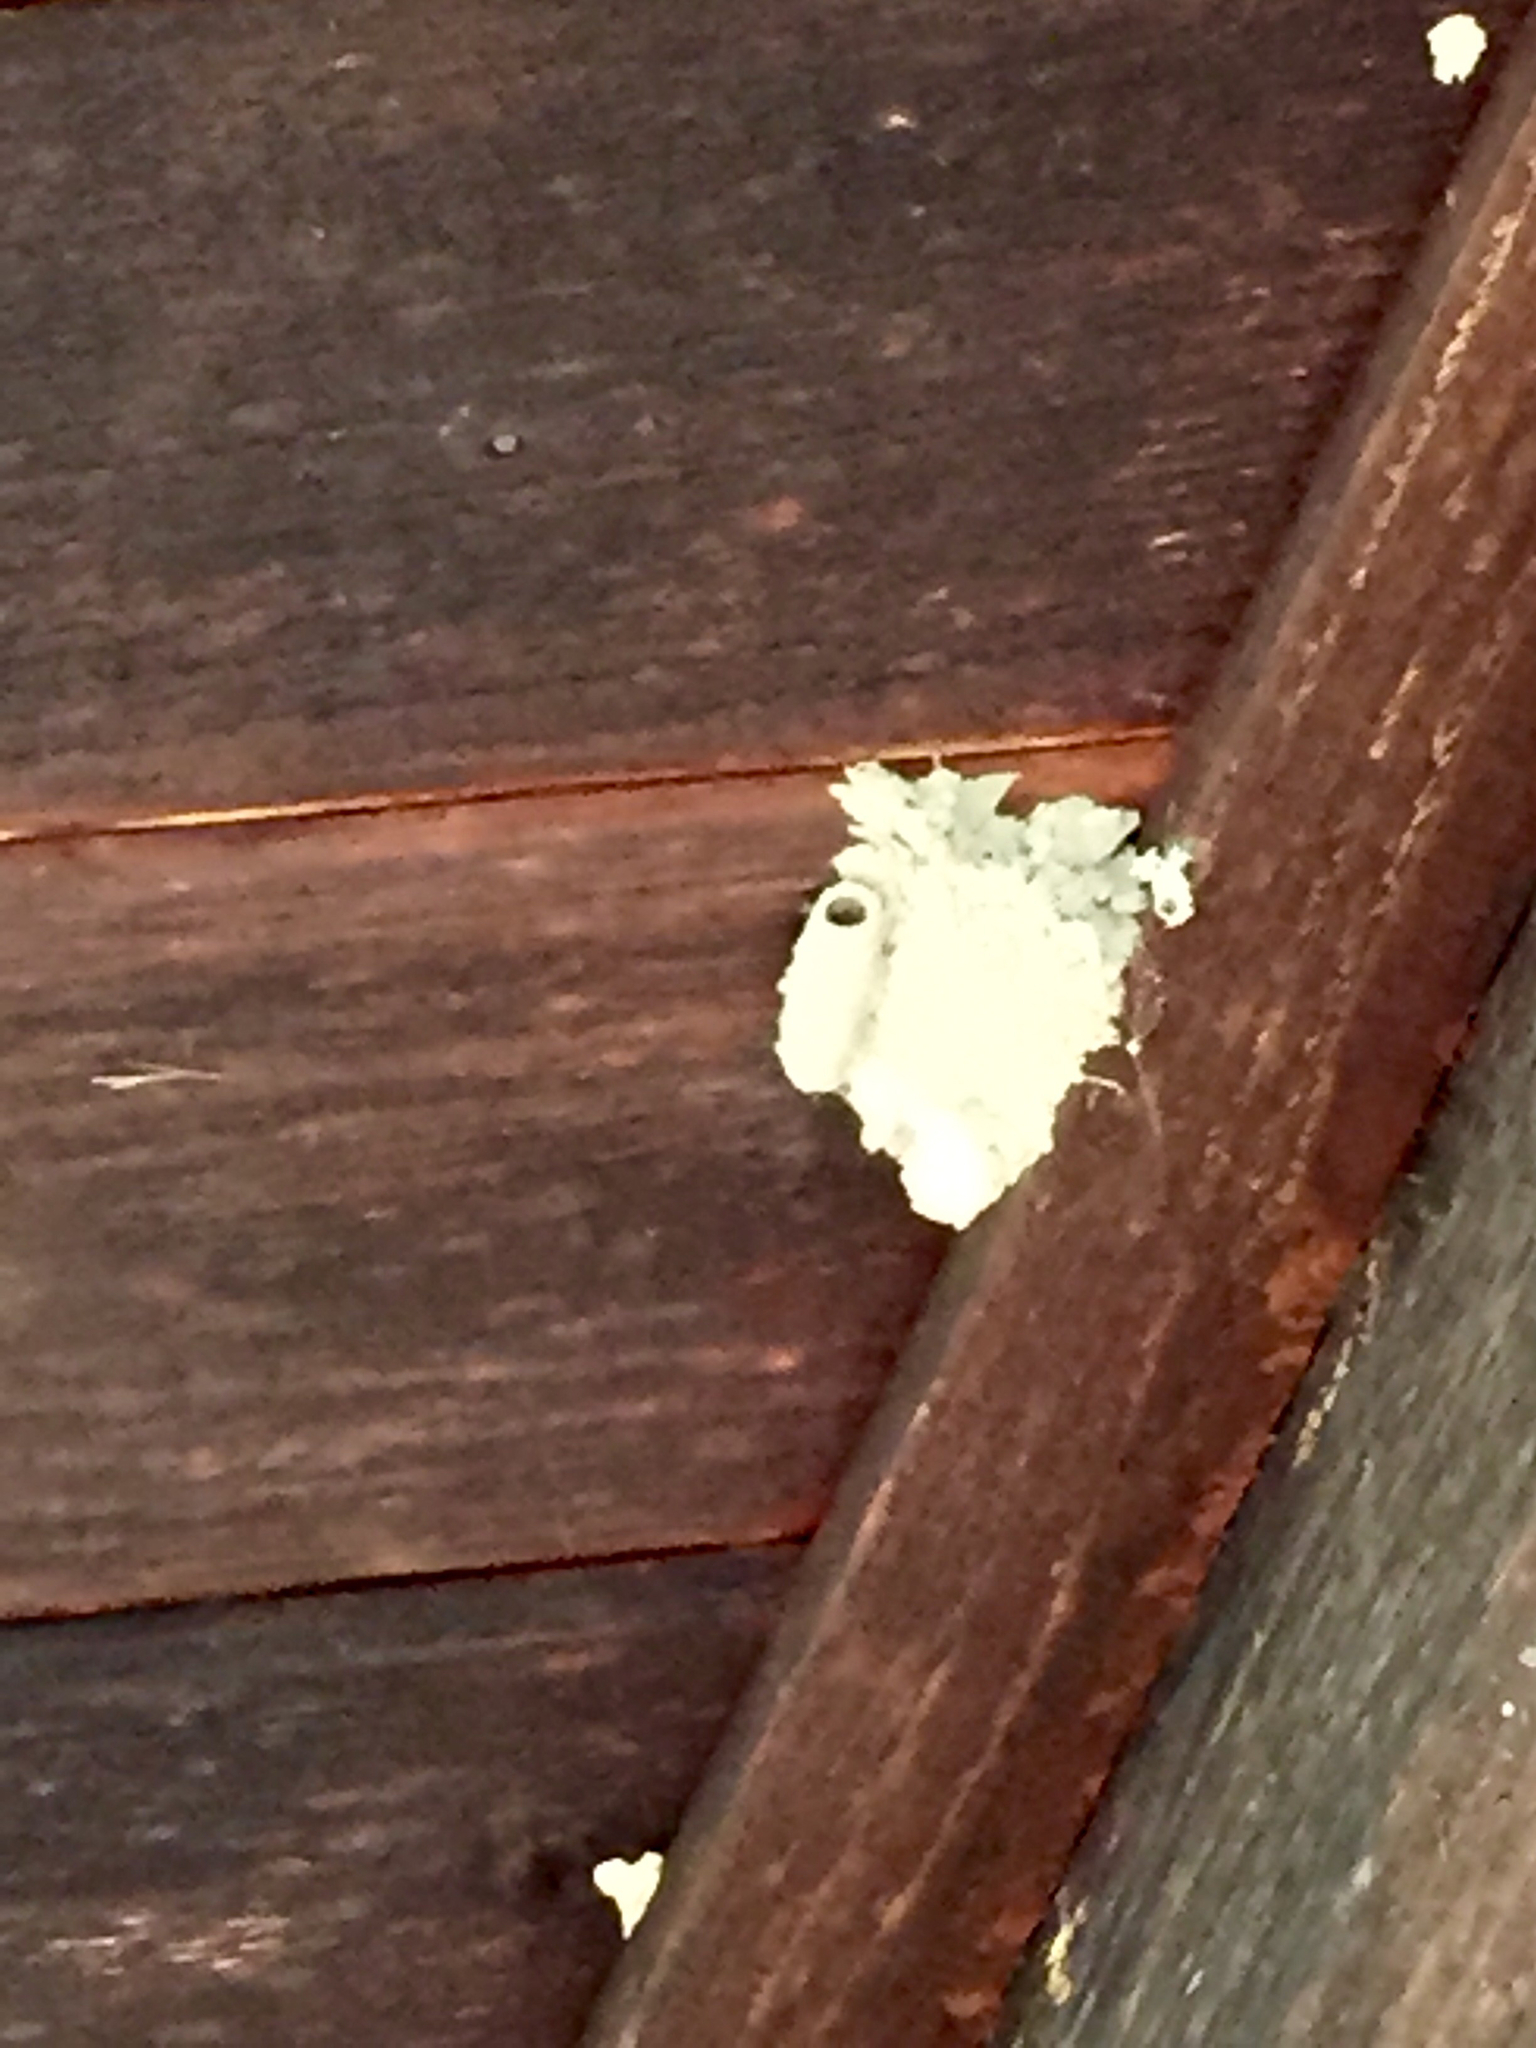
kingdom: Animalia
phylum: Arthropoda
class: Insecta
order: Hymenoptera
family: Sphecidae
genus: Sceliphron
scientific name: Sceliphron caementarium
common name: Mud dauber
